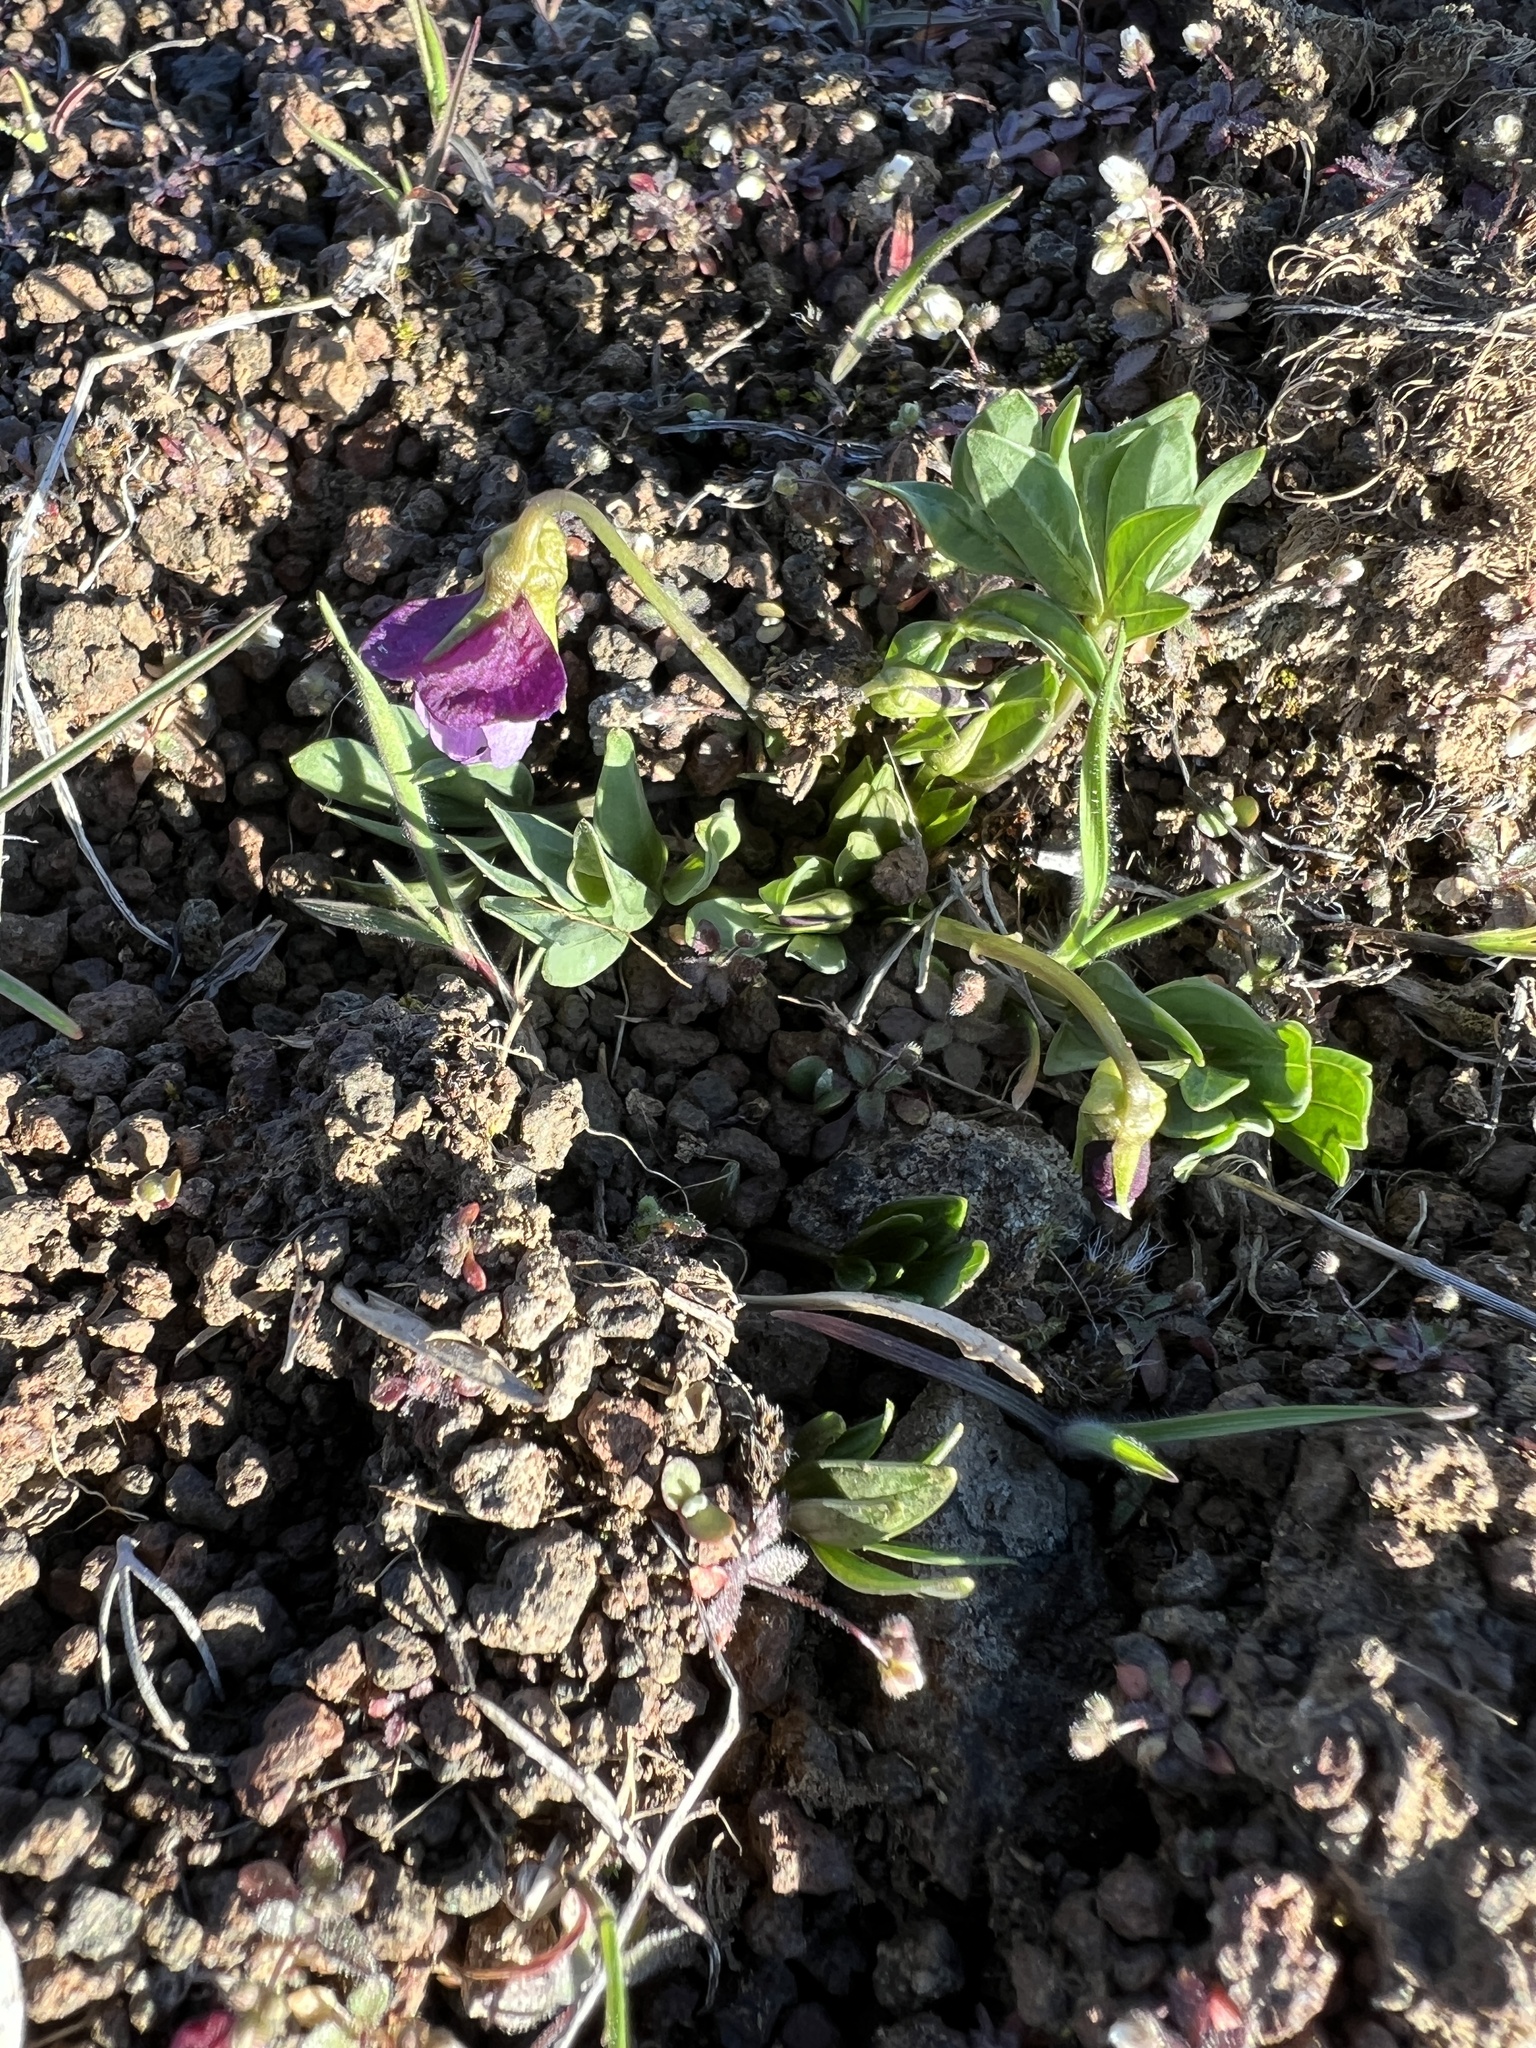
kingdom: Plantae
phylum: Tracheophyta
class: Magnoliopsida
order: Malpighiales
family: Violaceae
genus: Viola
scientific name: Viola trinervata
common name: Sagebrush violet
